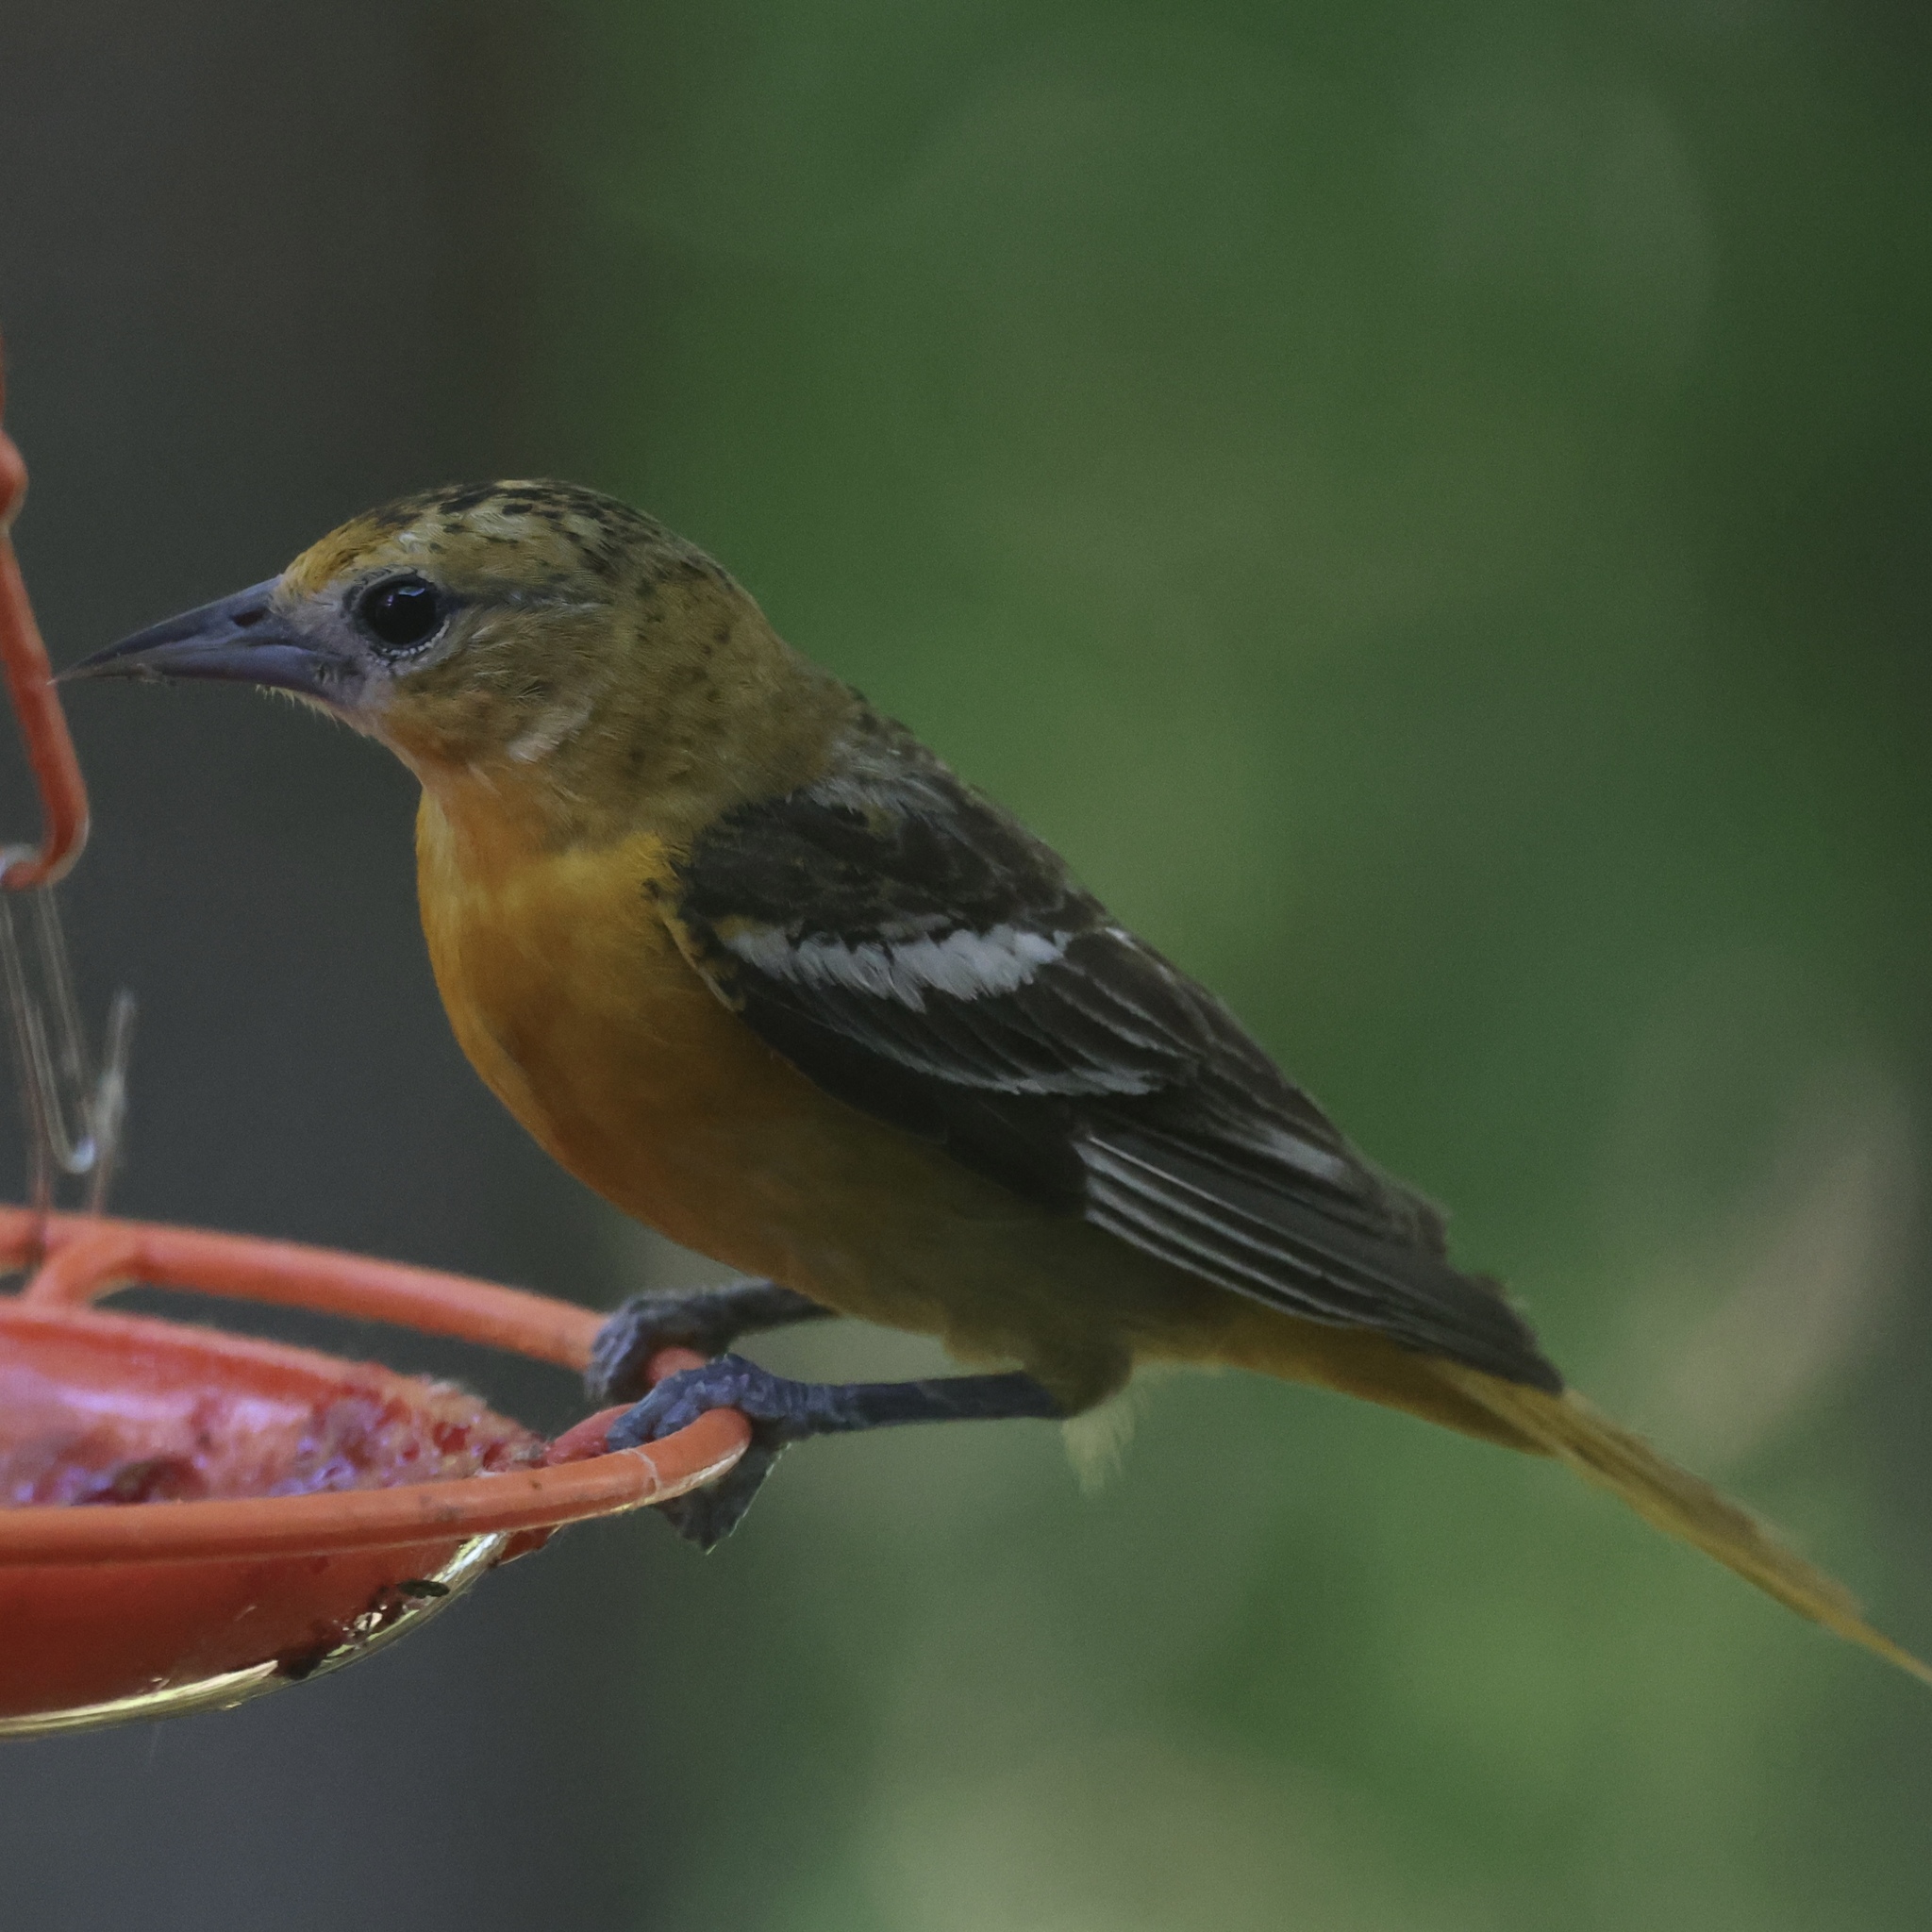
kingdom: Animalia
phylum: Chordata
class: Aves
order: Passeriformes
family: Icteridae
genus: Icterus
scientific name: Icterus galbula
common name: Baltimore oriole
